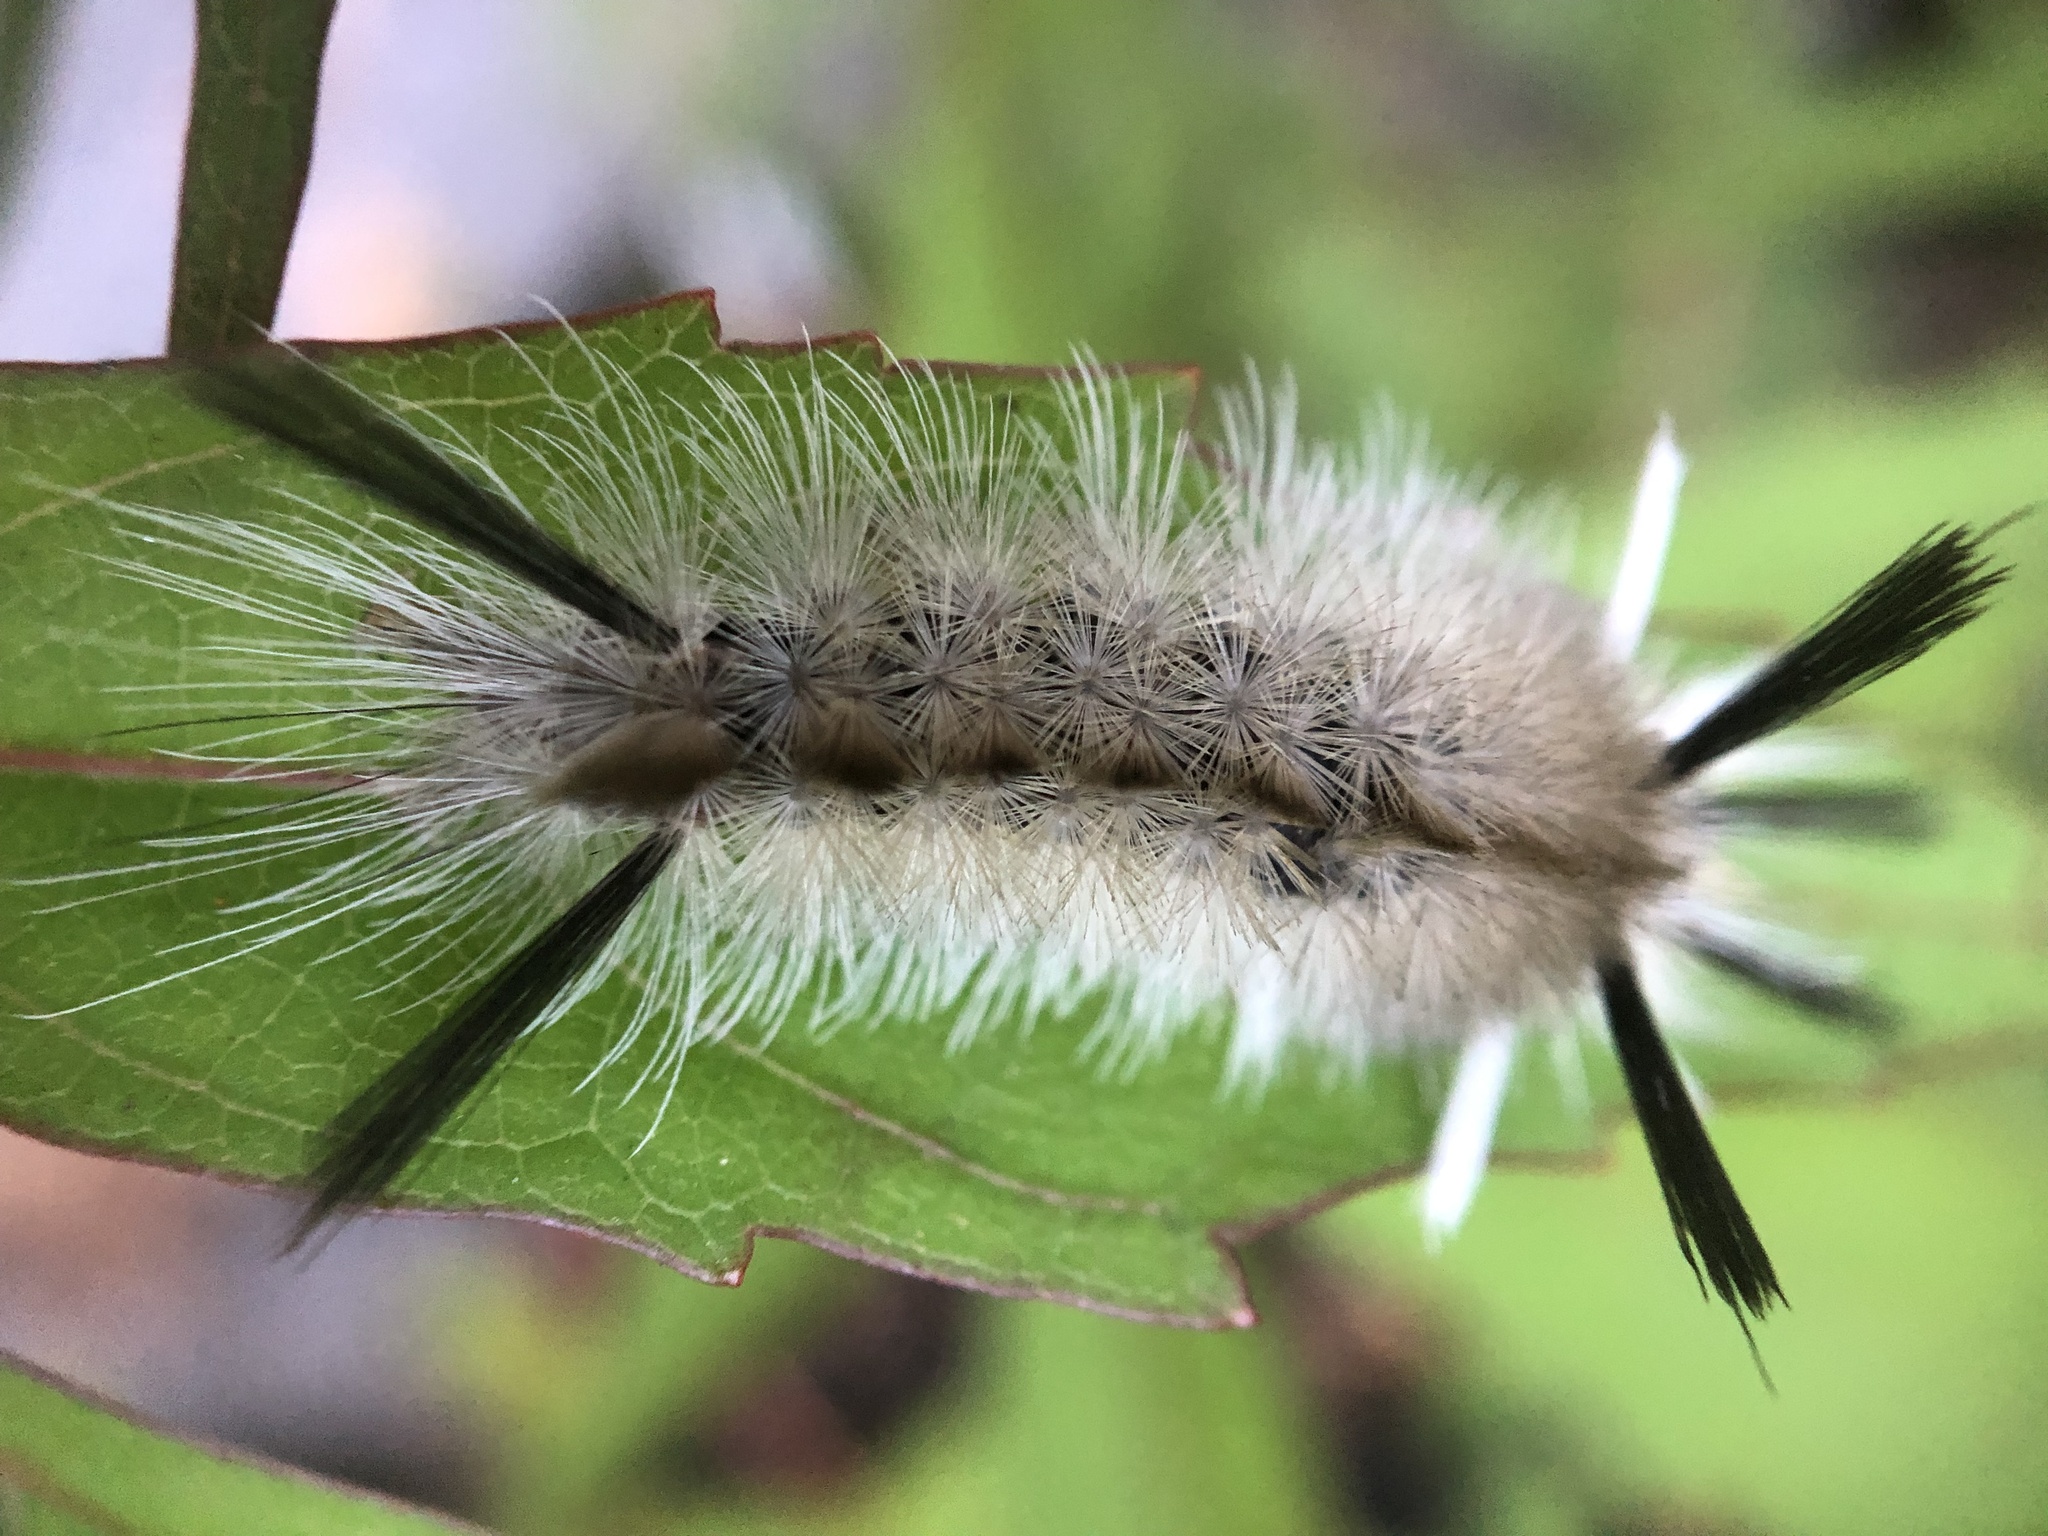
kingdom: Animalia
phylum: Arthropoda
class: Insecta
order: Lepidoptera
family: Erebidae
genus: Halysidota
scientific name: Halysidota tessellaris
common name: Banded tussock moth
